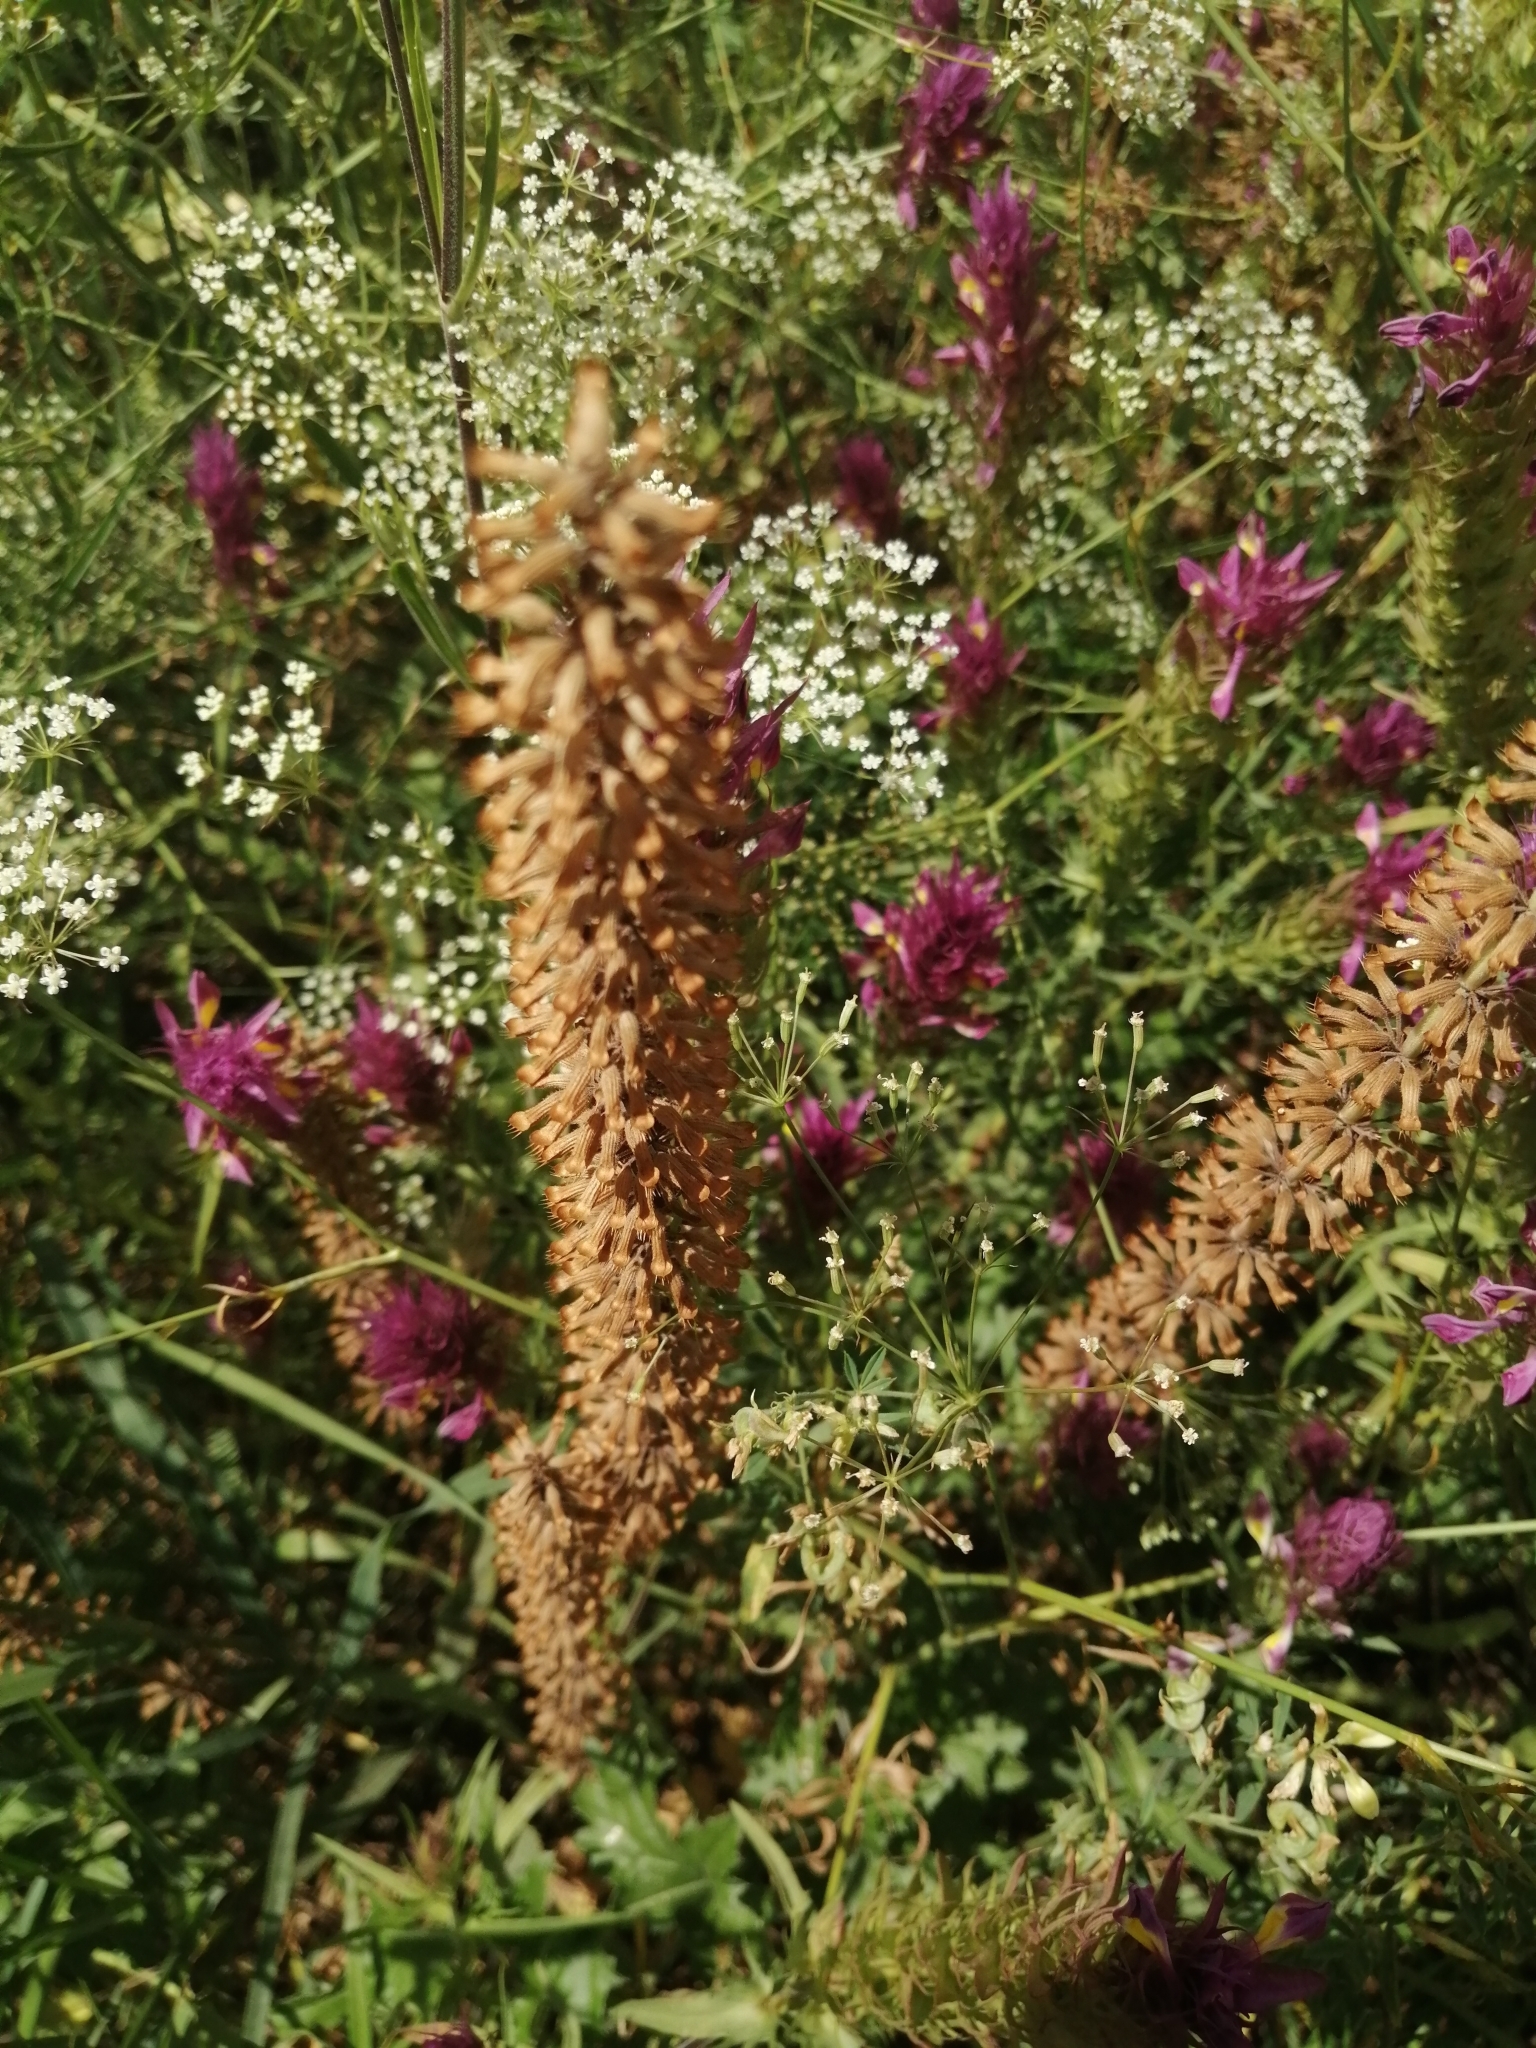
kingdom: Plantae
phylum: Tracheophyta
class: Magnoliopsida
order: Lamiales
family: Lamiaceae
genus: Dracocephalum
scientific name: Dracocephalum thymiflorum
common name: Thymeleaf dragonhead
